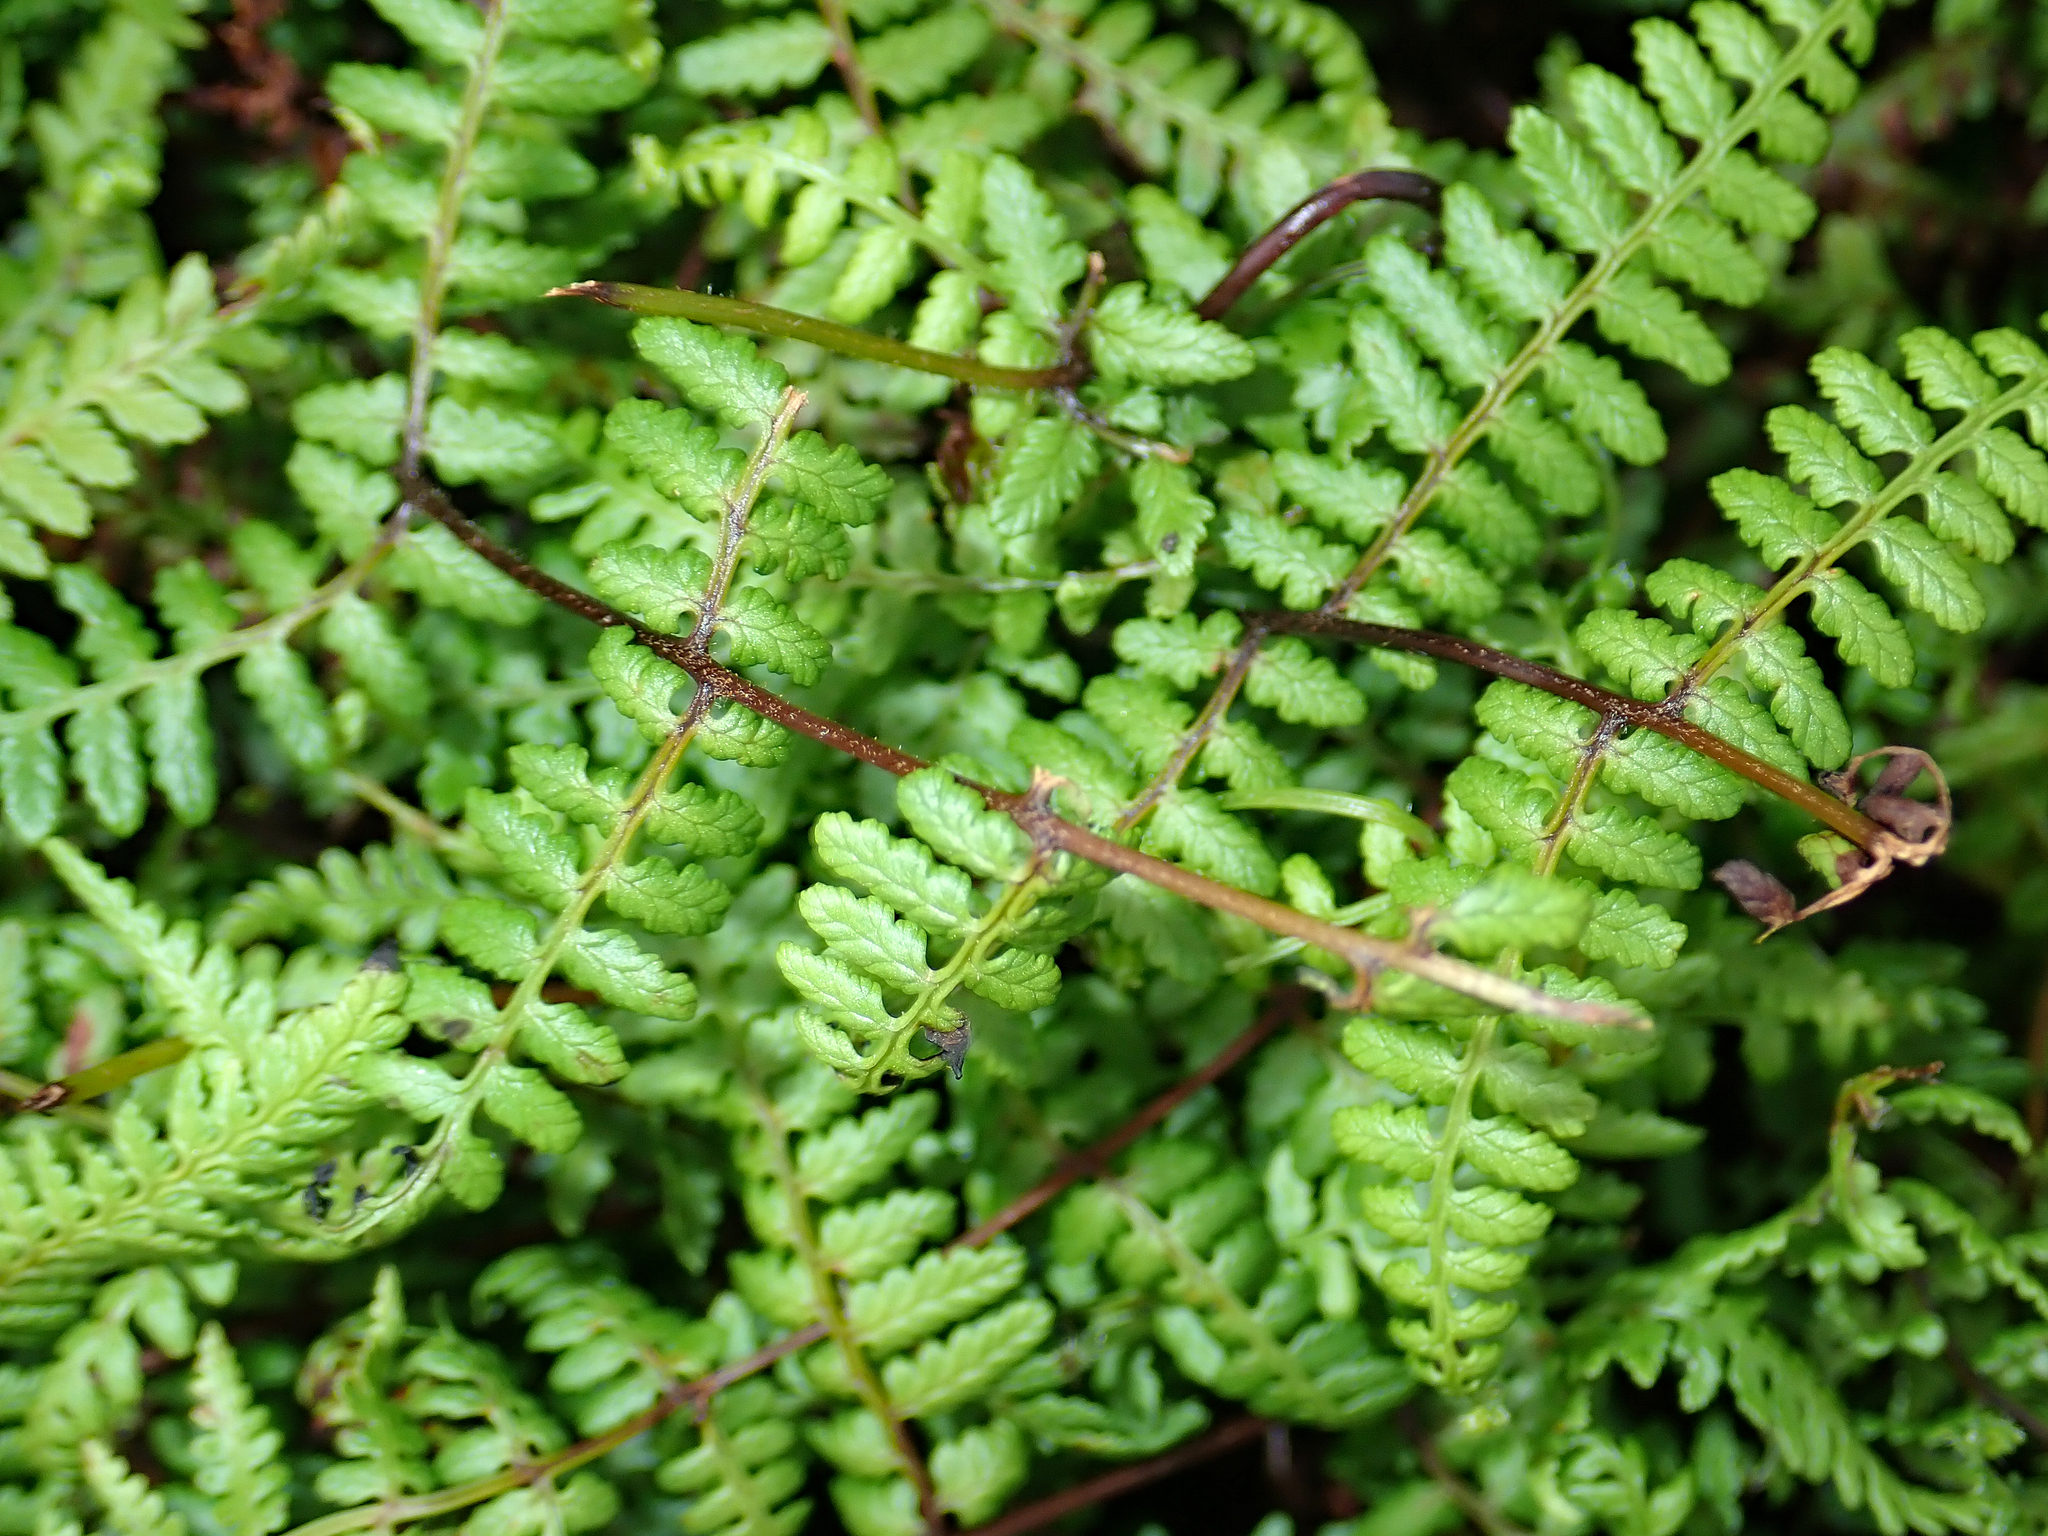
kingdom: Plantae
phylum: Tracheophyta
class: Polypodiopsida
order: Polypodiales
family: Dennstaedtiaceae
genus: Hiya
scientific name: Hiya distans
